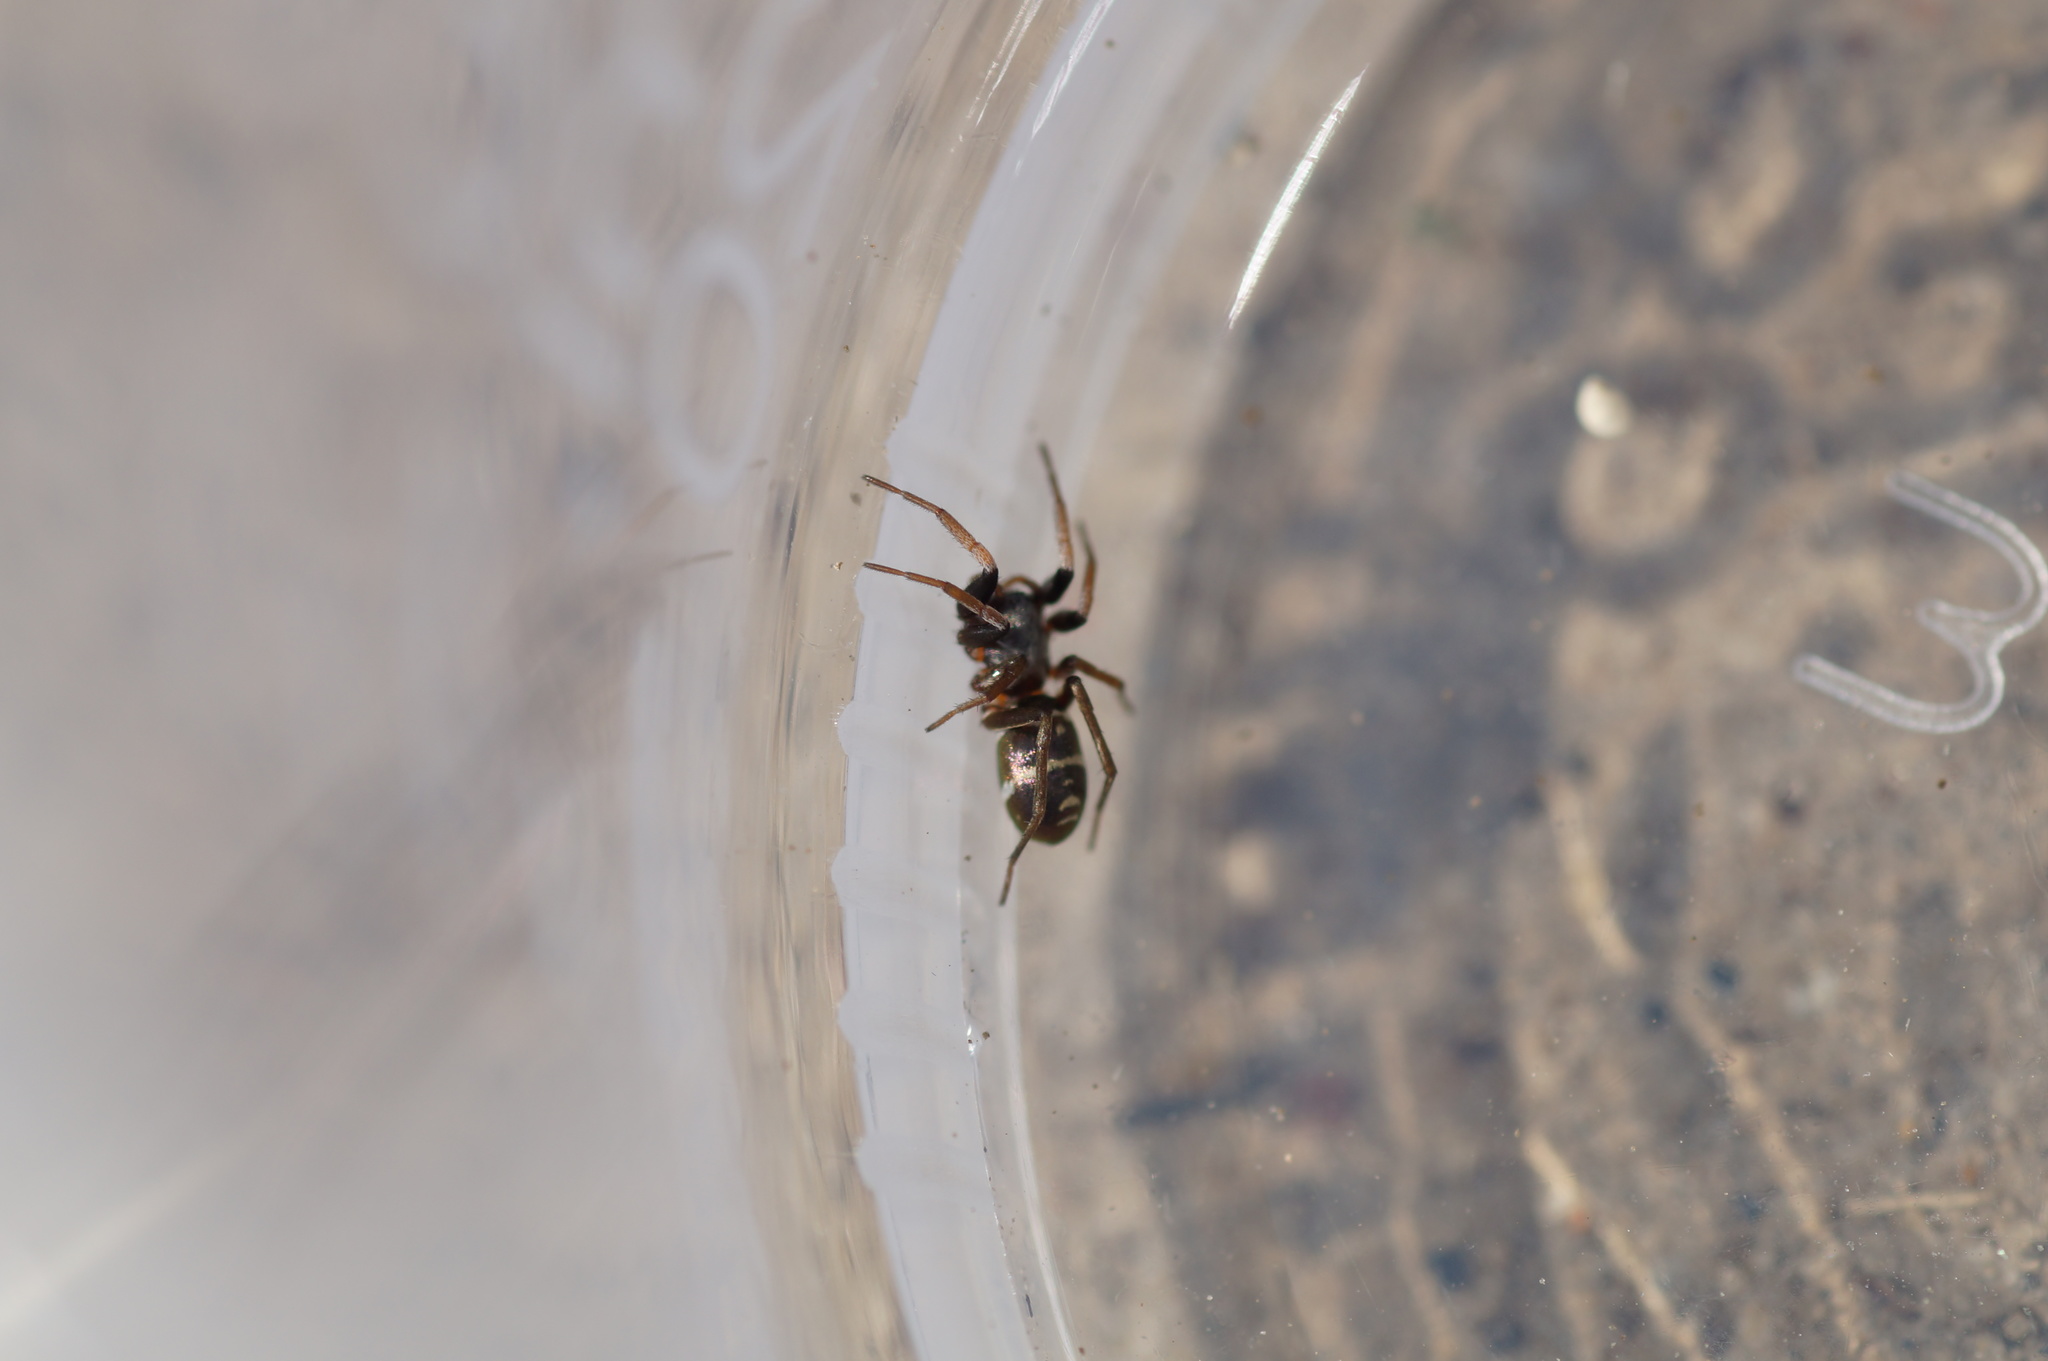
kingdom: Animalia
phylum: Arthropoda
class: Arachnida
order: Araneae
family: Gnaphosidae
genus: Micaria
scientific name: Micaria micans
